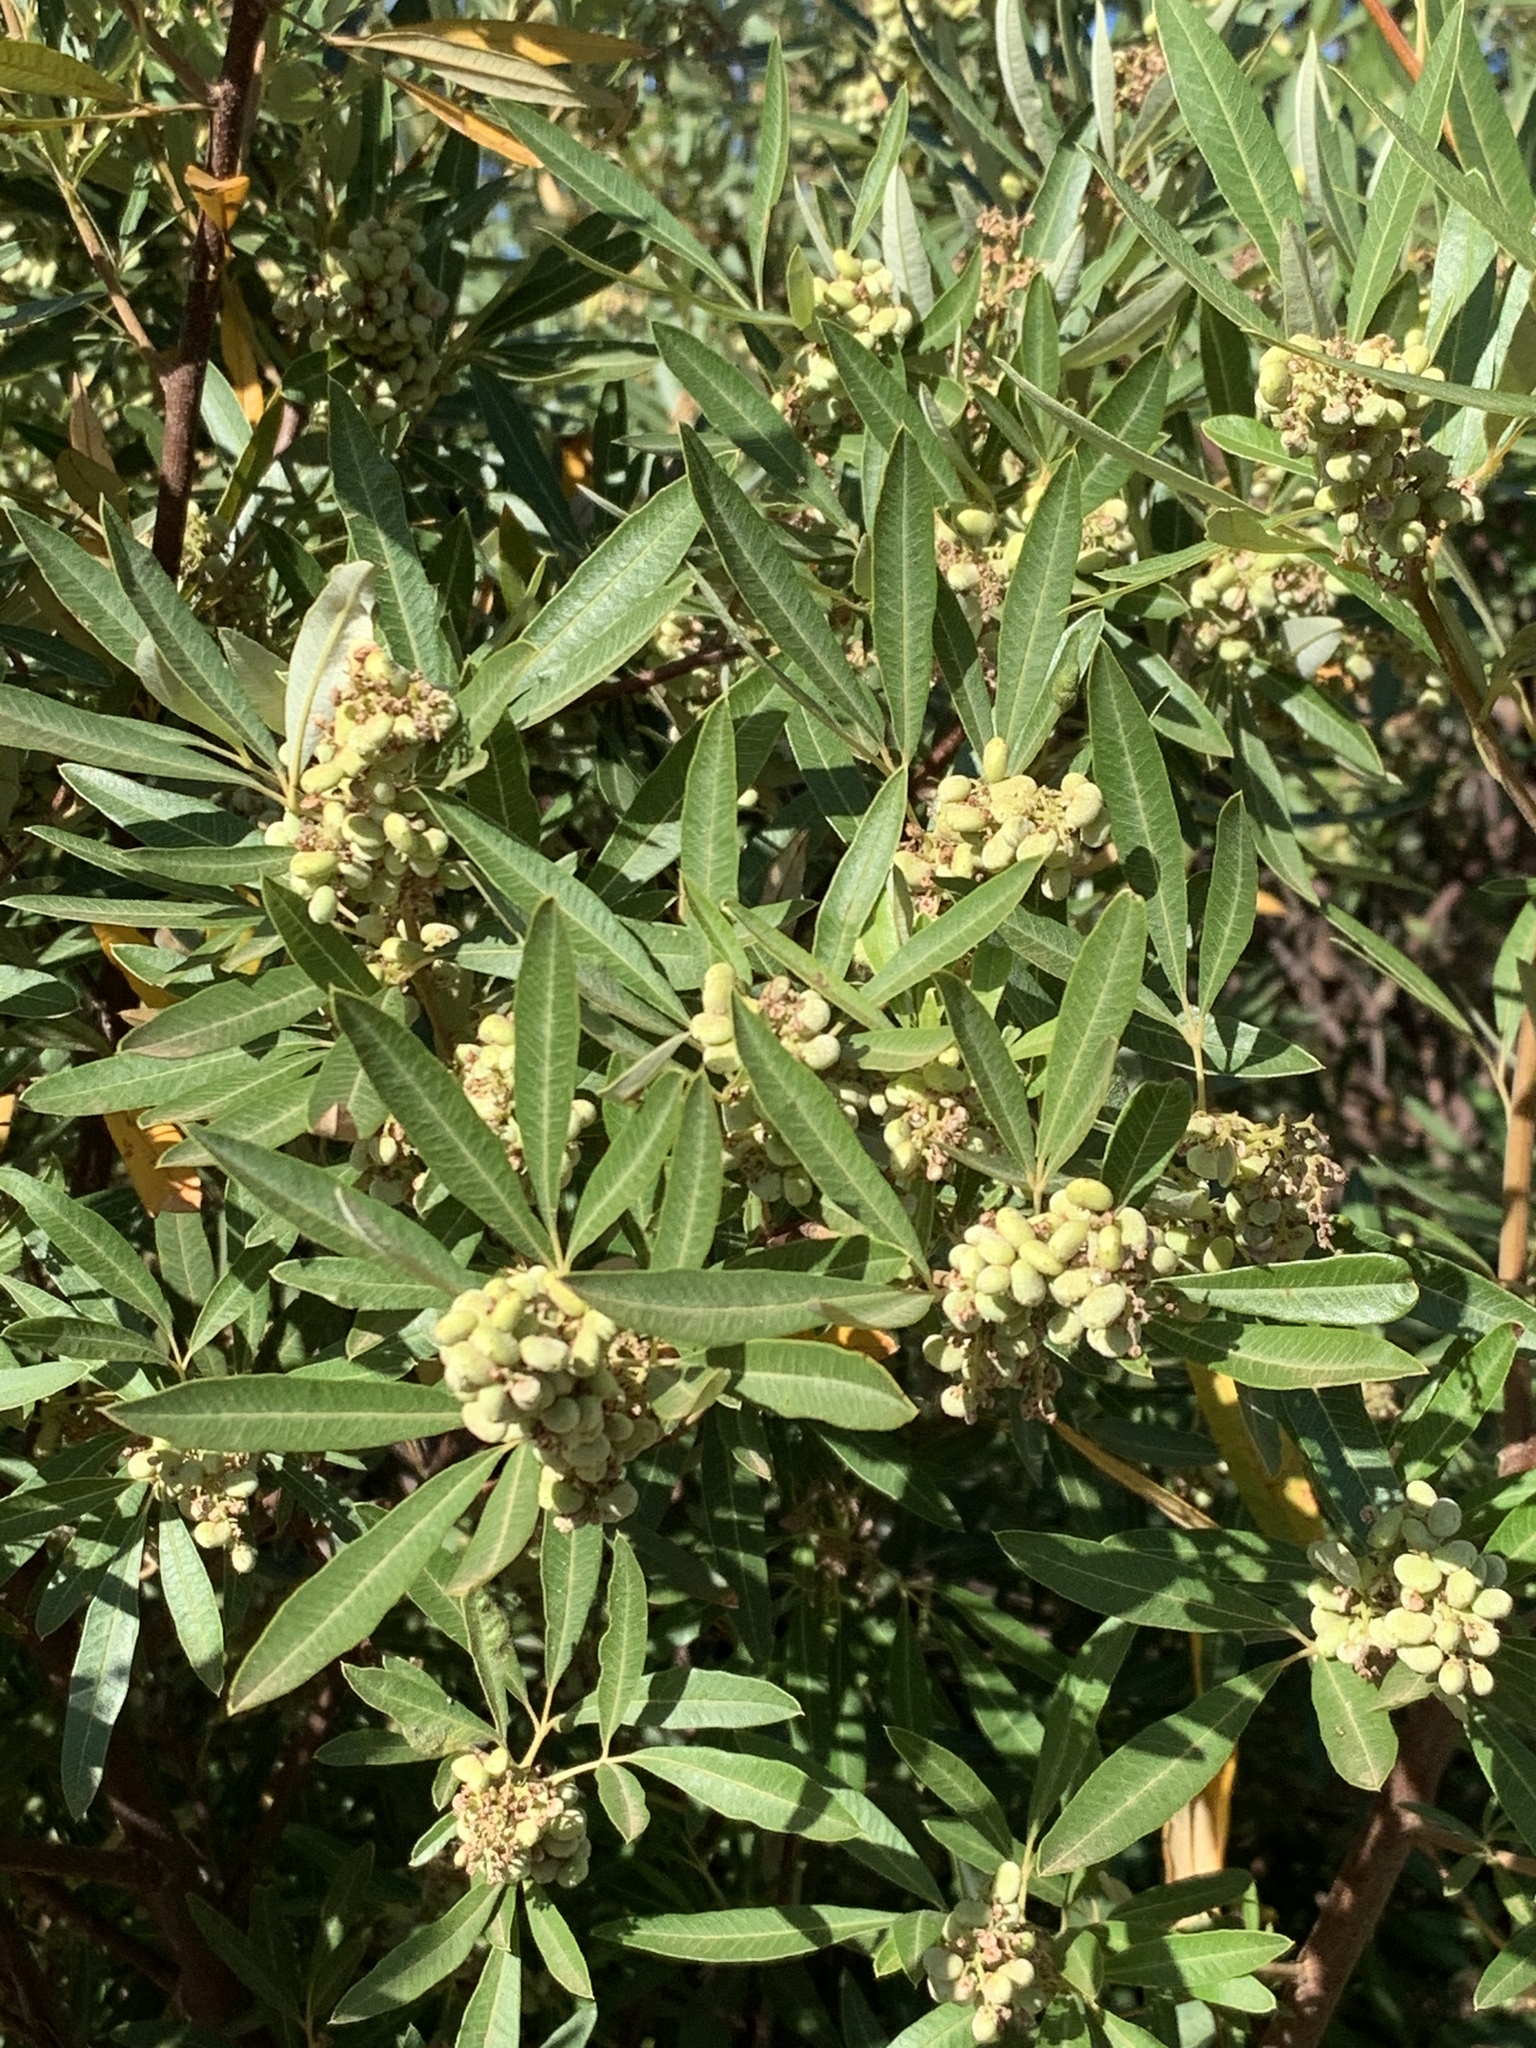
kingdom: Plantae
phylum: Tracheophyta
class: Magnoliopsida
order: Sapindales
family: Anacardiaceae
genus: Searsia
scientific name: Searsia angustifolia
